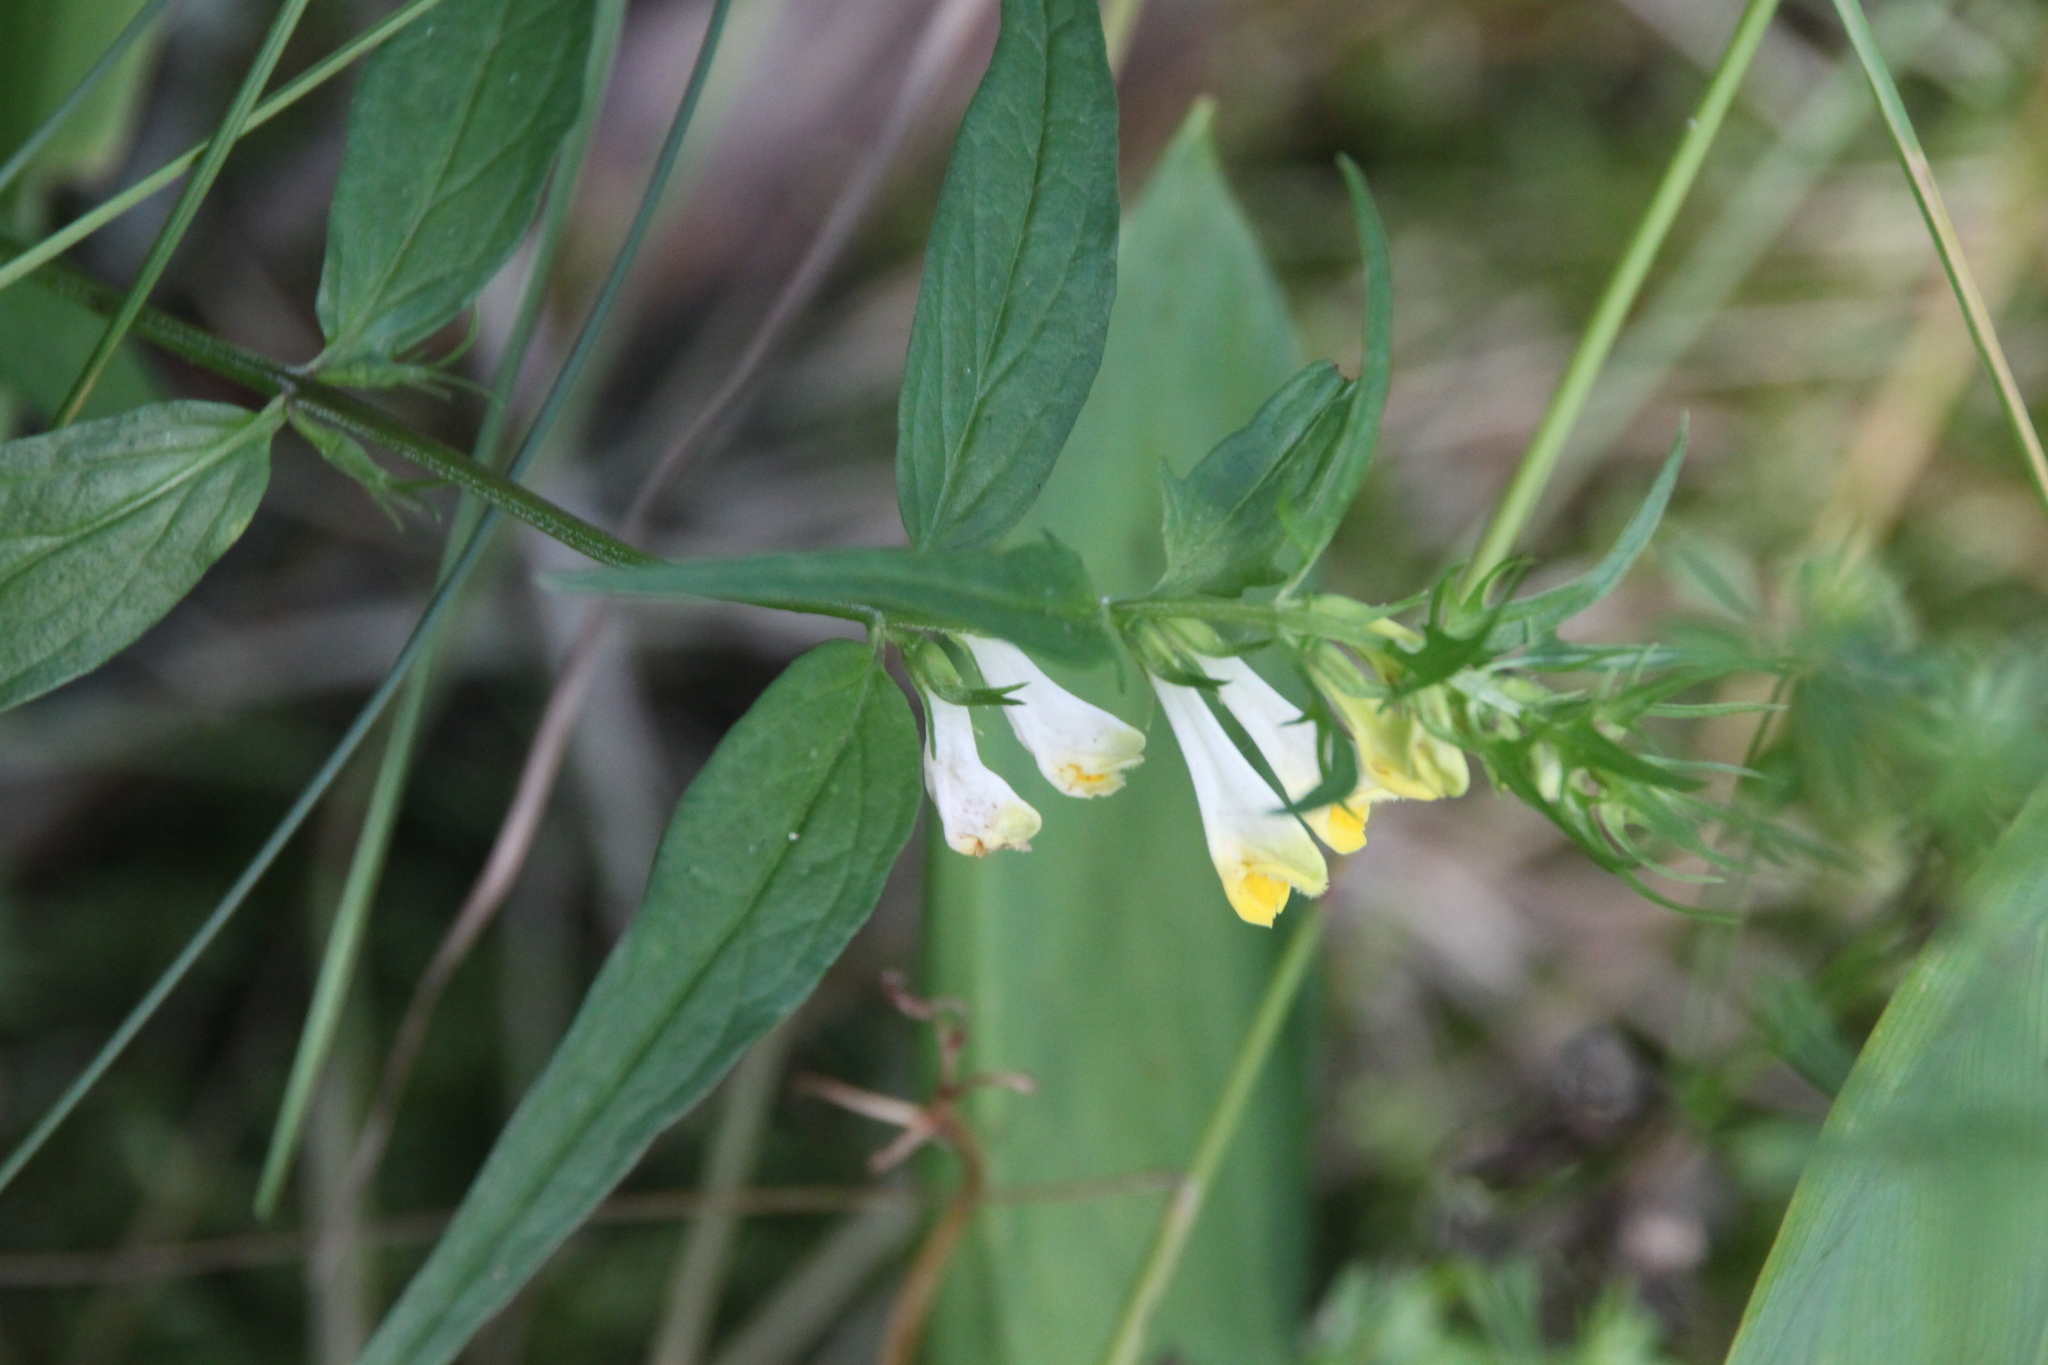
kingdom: Plantae
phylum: Tracheophyta
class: Magnoliopsida
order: Lamiales
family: Orobanchaceae
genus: Melampyrum
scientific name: Melampyrum pratense
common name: Common cow-wheat
